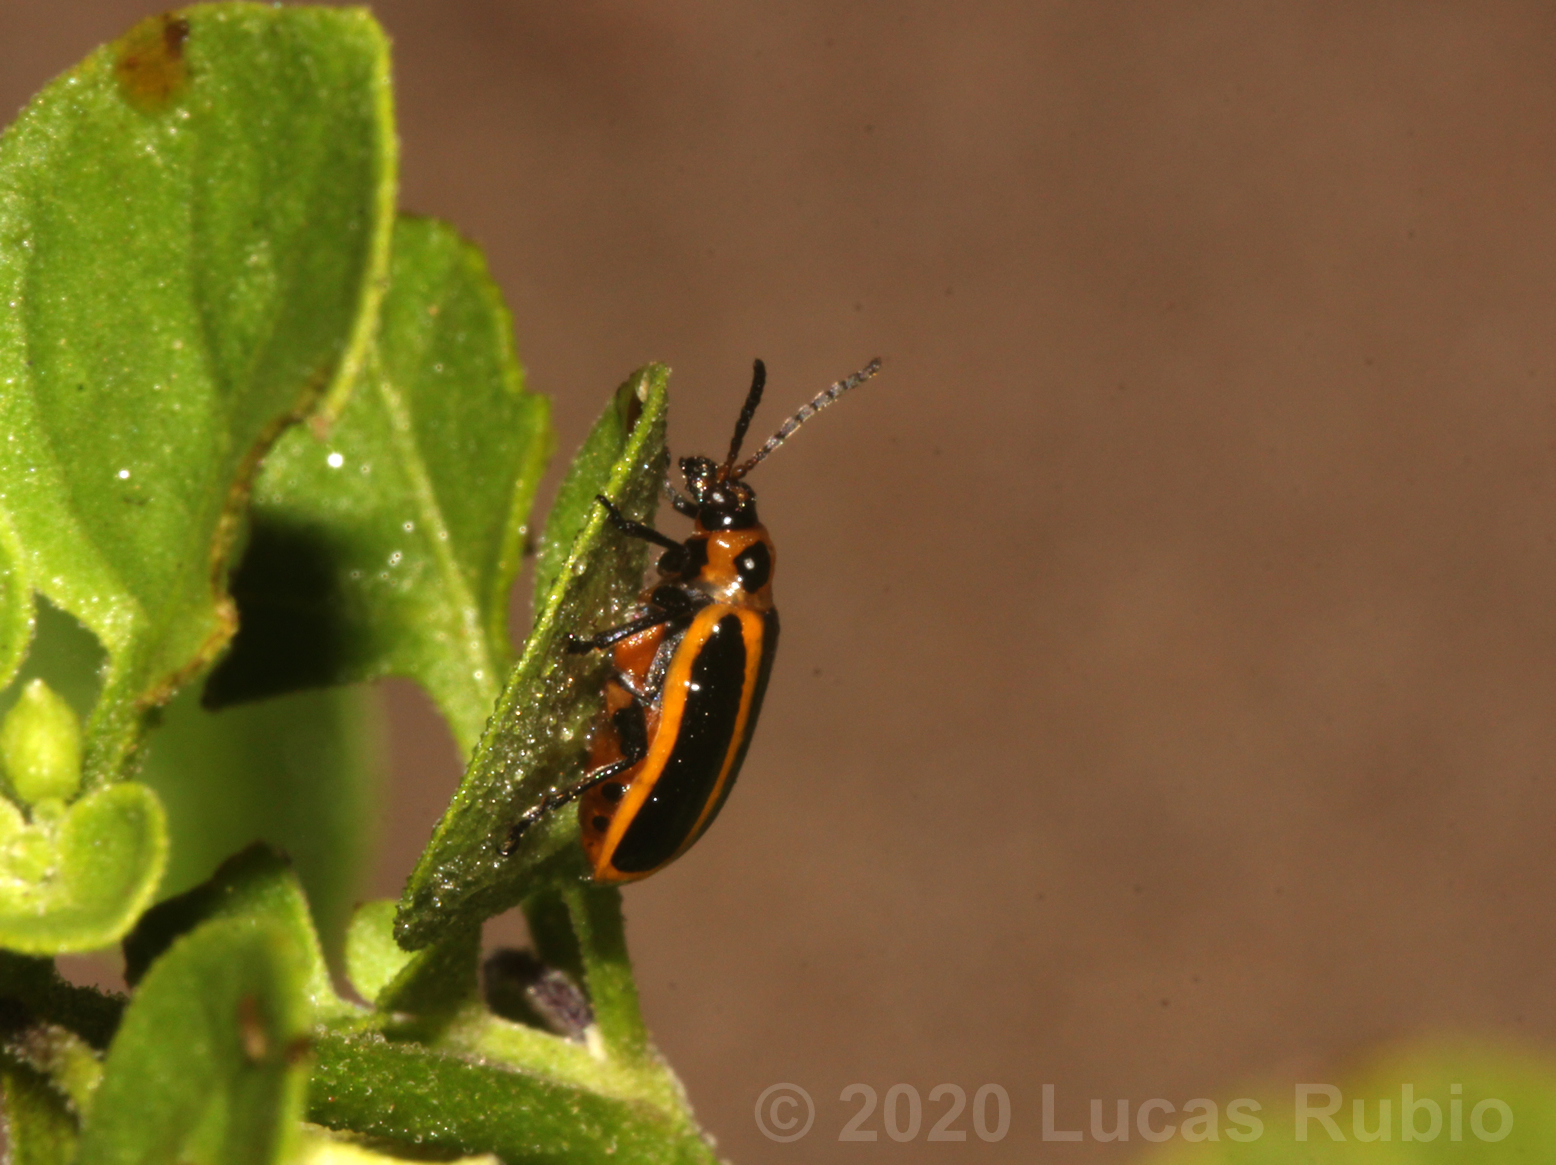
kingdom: Animalia
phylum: Arthropoda
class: Insecta
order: Coleoptera
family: Chrysomelidae
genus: Lema
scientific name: Lema bilineata
